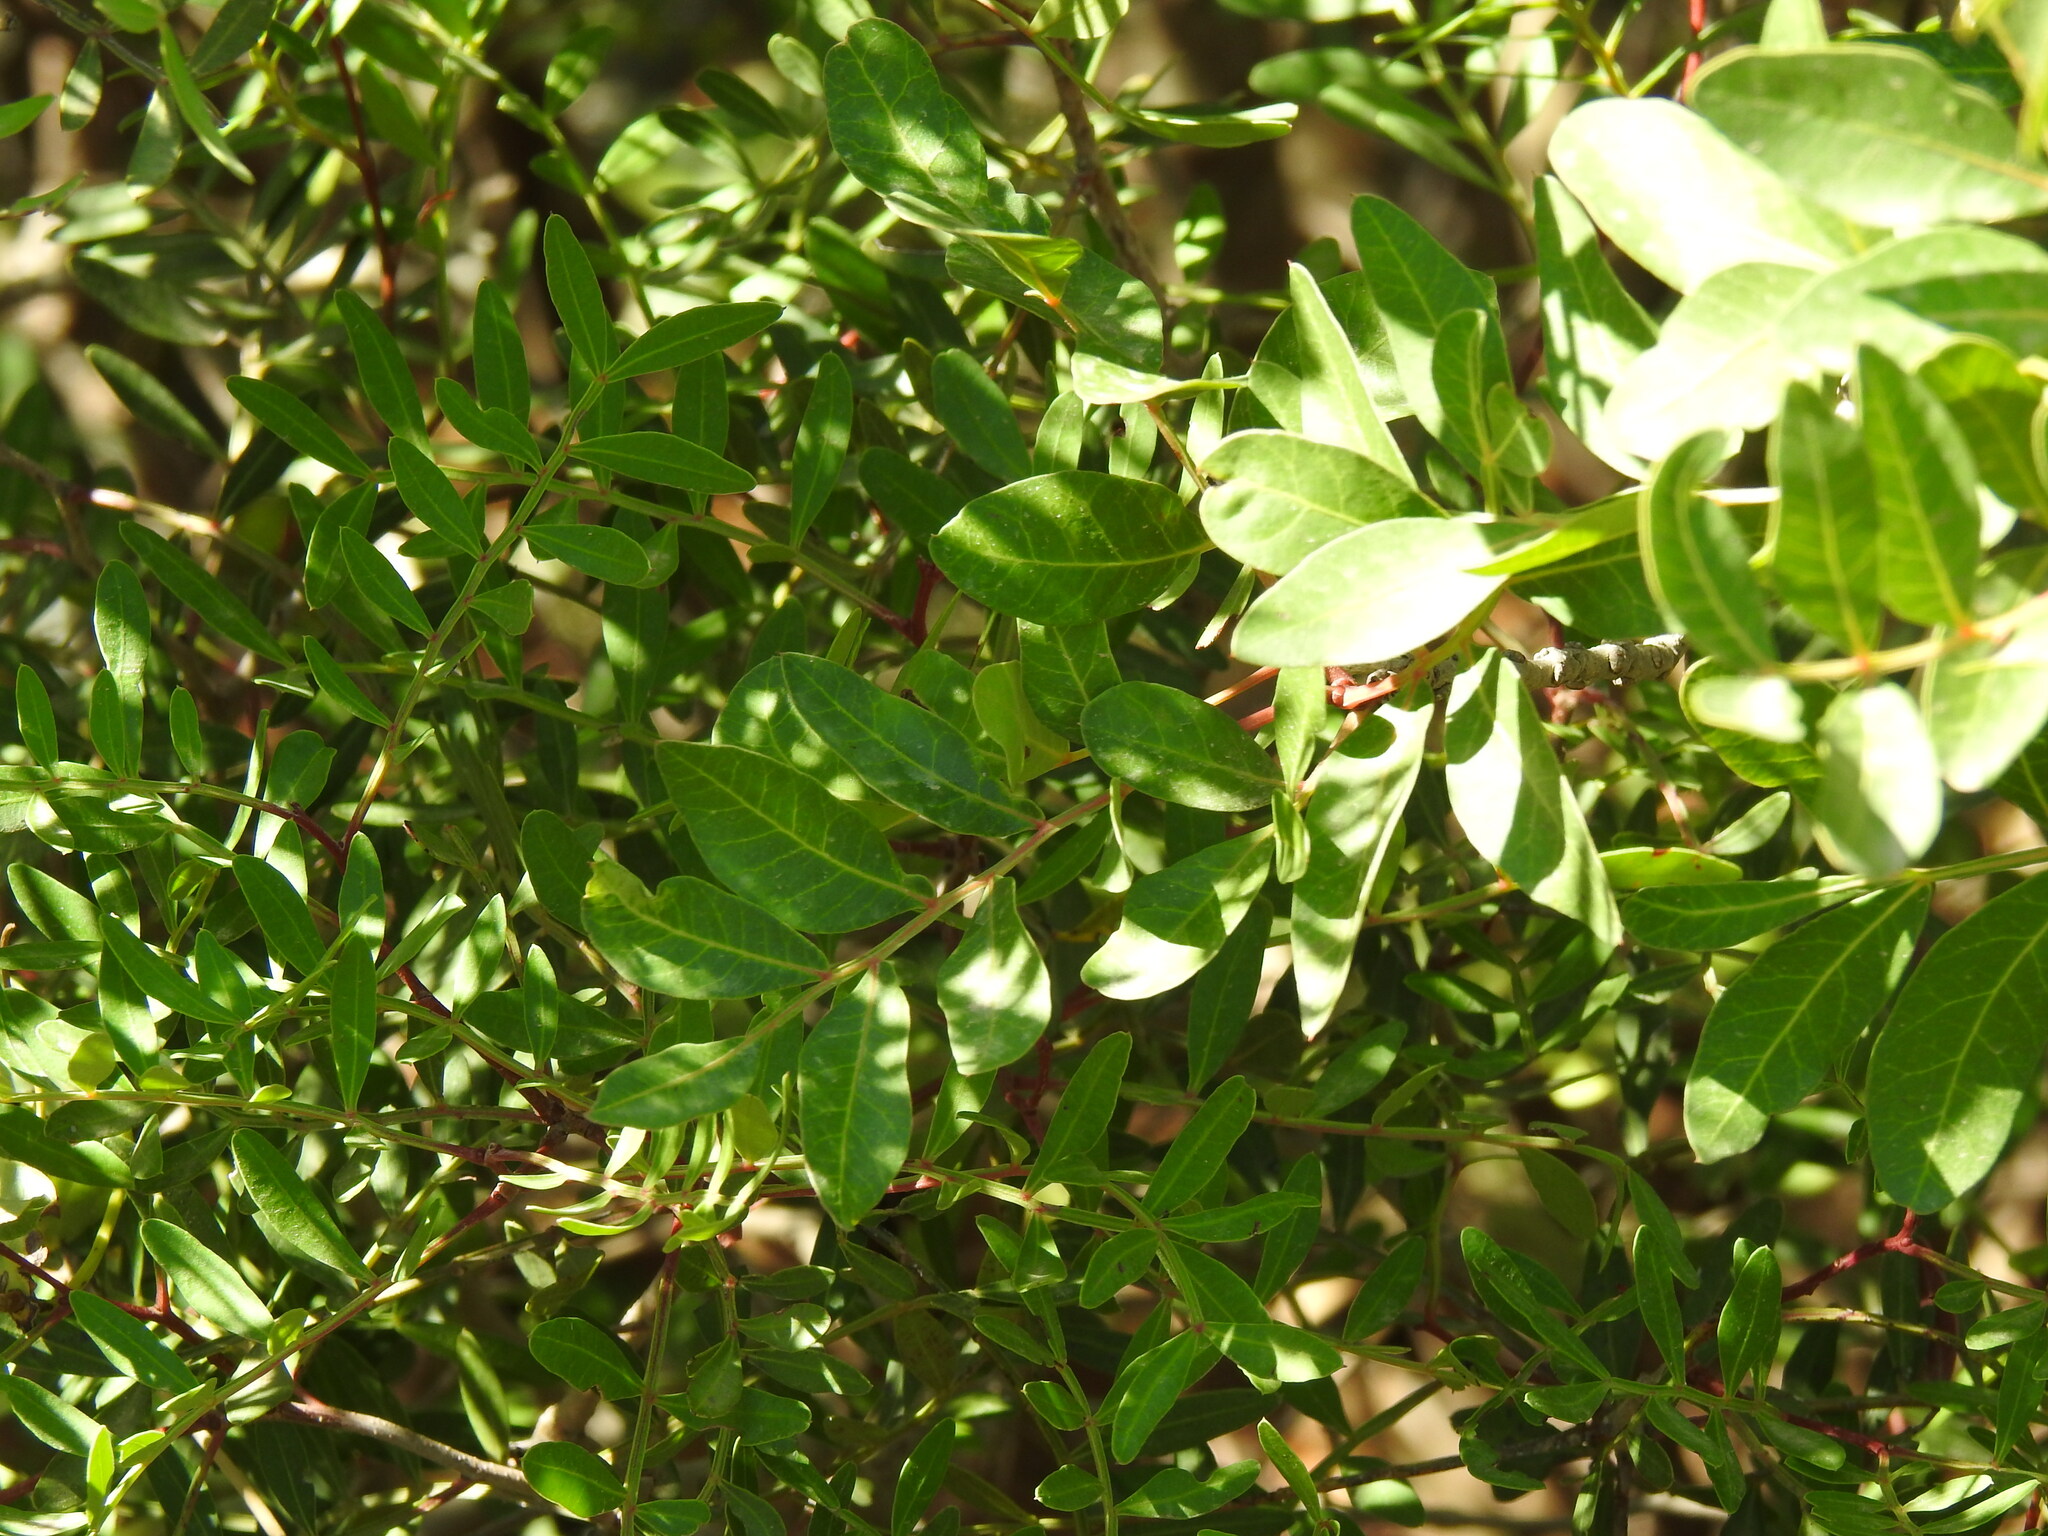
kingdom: Plantae
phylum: Tracheophyta
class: Magnoliopsida
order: Sapindales
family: Anacardiaceae
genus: Pistacia
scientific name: Pistacia saportae
